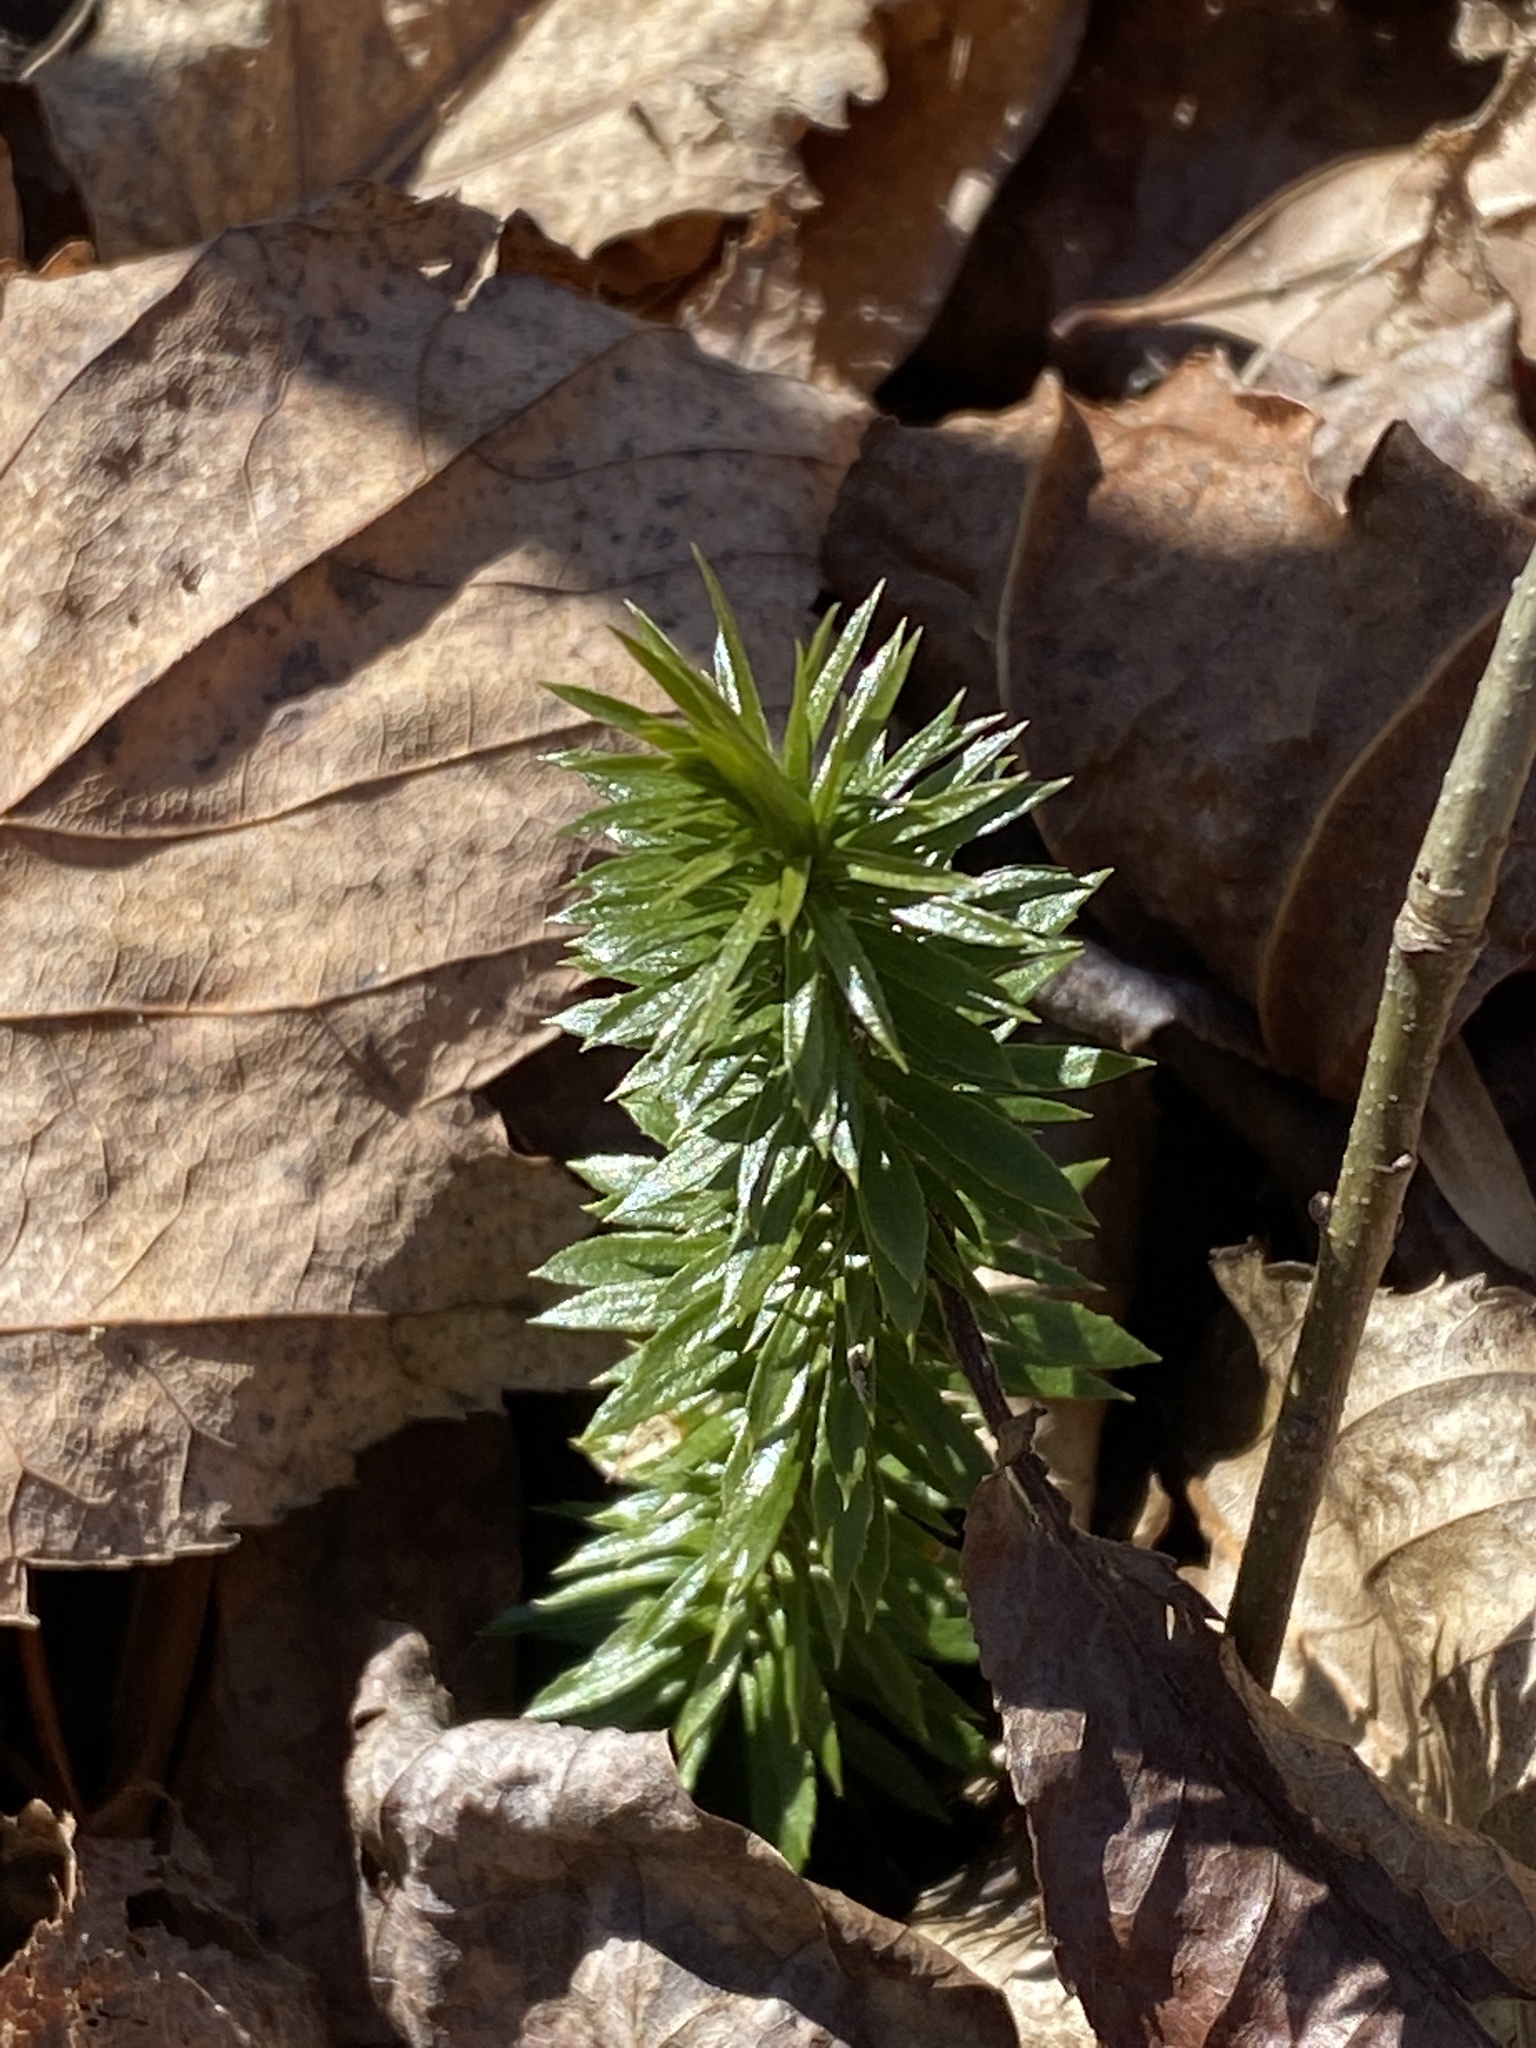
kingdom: Plantae
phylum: Tracheophyta
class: Lycopodiopsida
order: Lycopodiales
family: Lycopodiaceae
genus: Huperzia
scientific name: Huperzia lucidula
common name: Shining clubmoss
